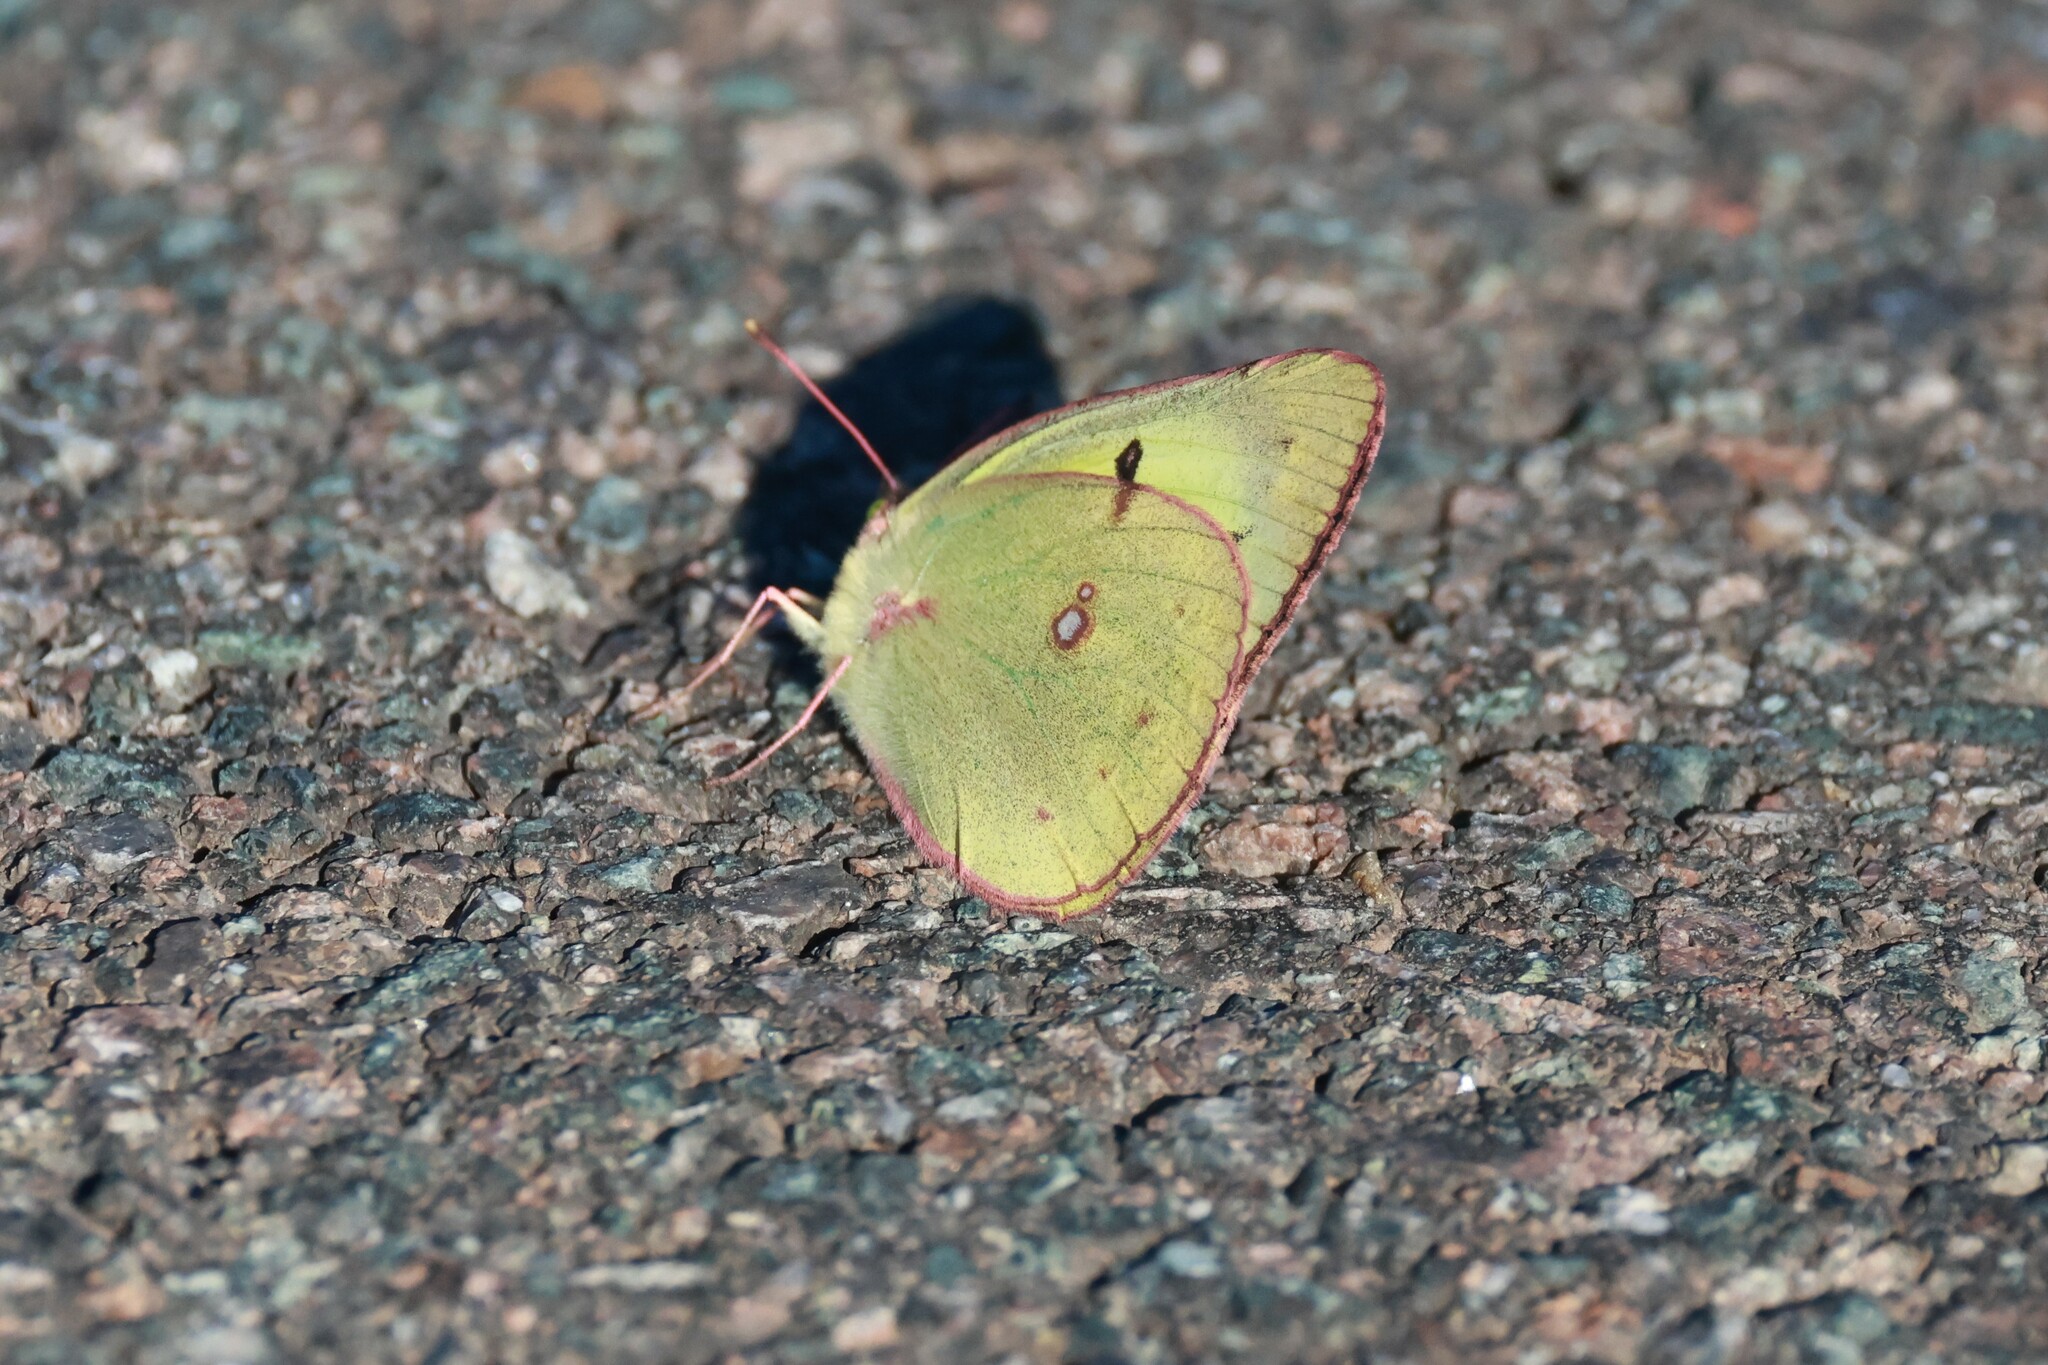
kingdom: Animalia
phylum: Arthropoda
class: Insecta
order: Lepidoptera
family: Pieridae
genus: Colias
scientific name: Colias philodice
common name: Clouded sulphur
